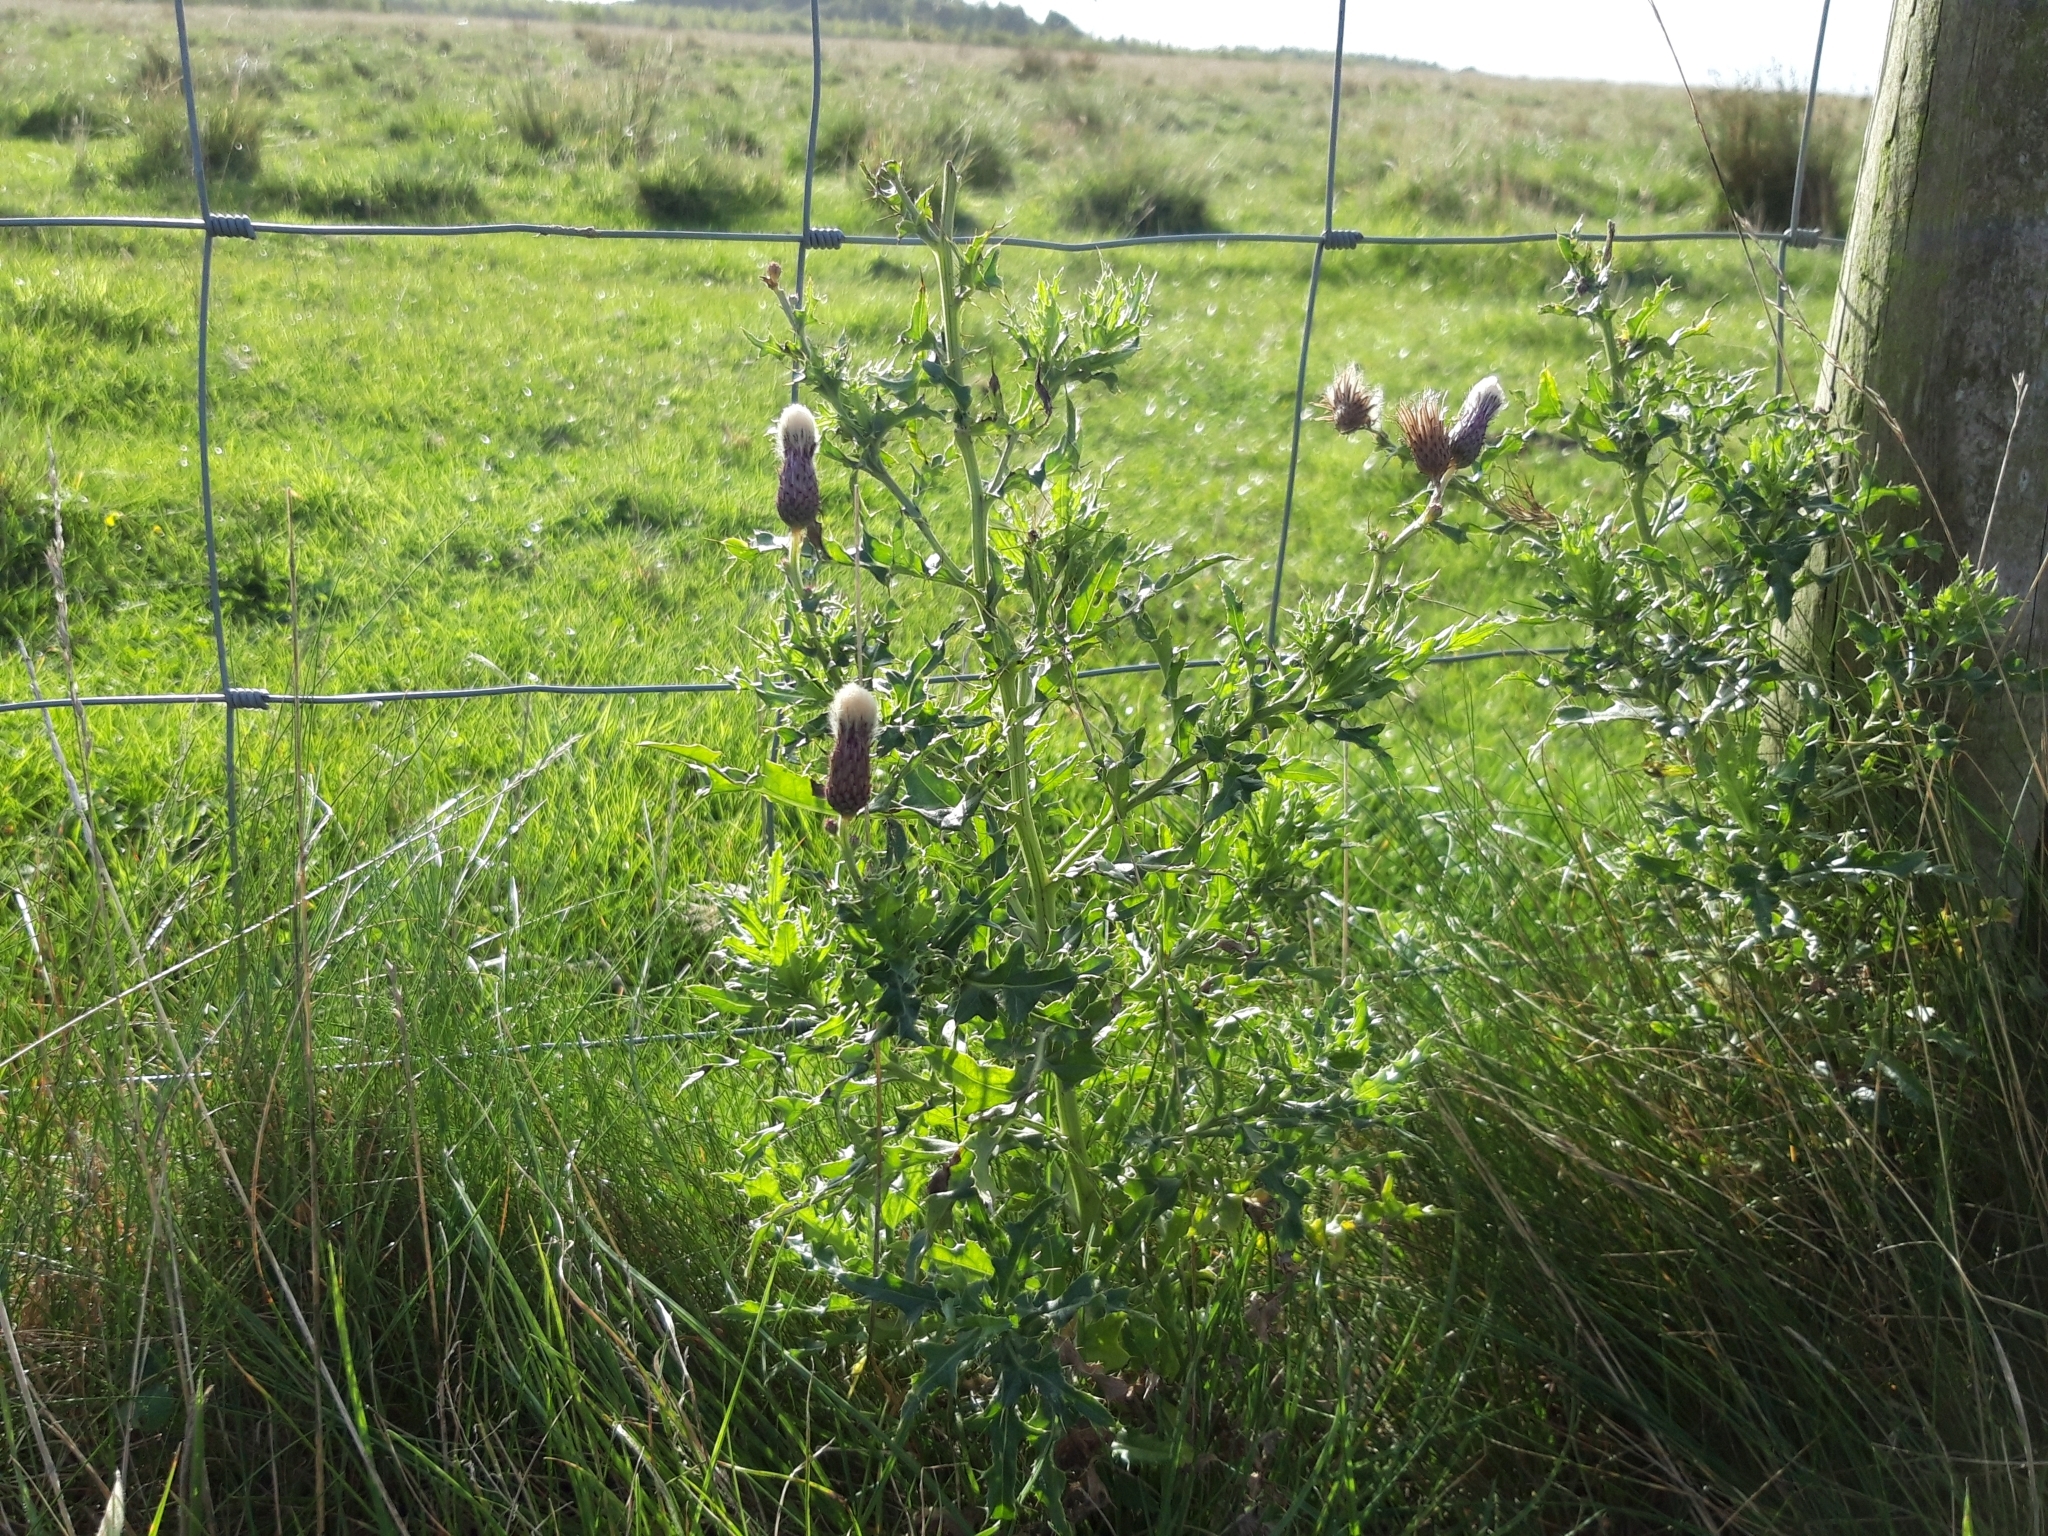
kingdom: Plantae
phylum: Tracheophyta
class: Magnoliopsida
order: Asterales
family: Asteraceae
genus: Cirsium
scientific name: Cirsium arvense
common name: Creeping thistle
